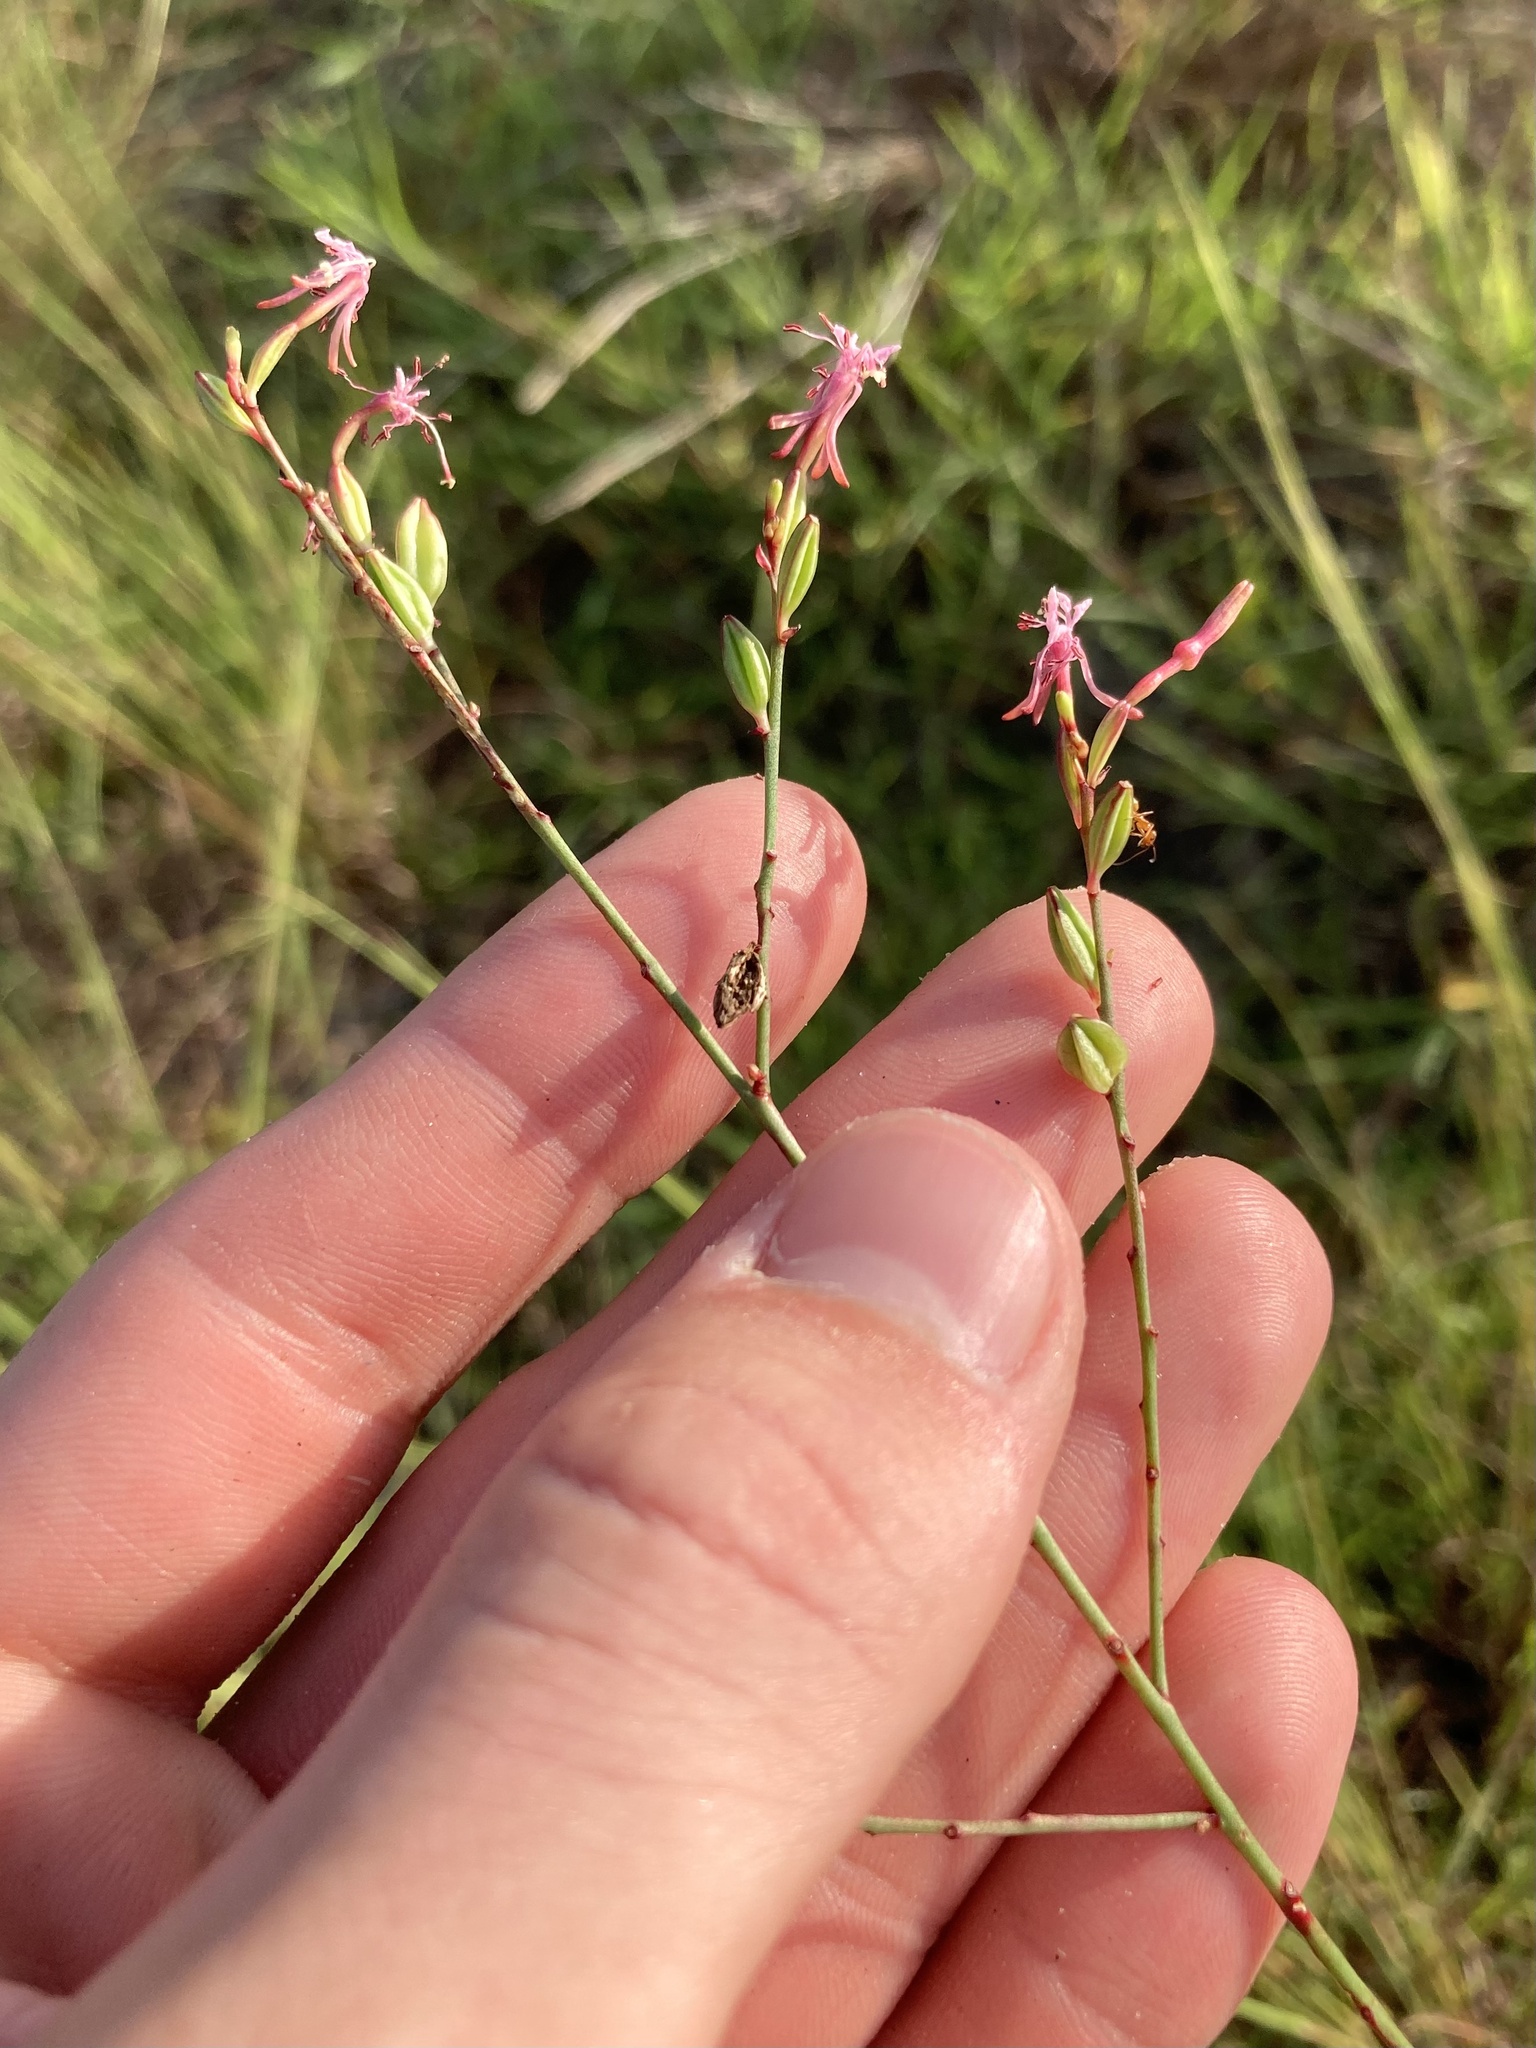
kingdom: Plantae
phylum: Tracheophyta
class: Magnoliopsida
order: Myrtales
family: Onagraceae
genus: Oenothera
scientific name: Oenothera simulans
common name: Southern beeblossom
